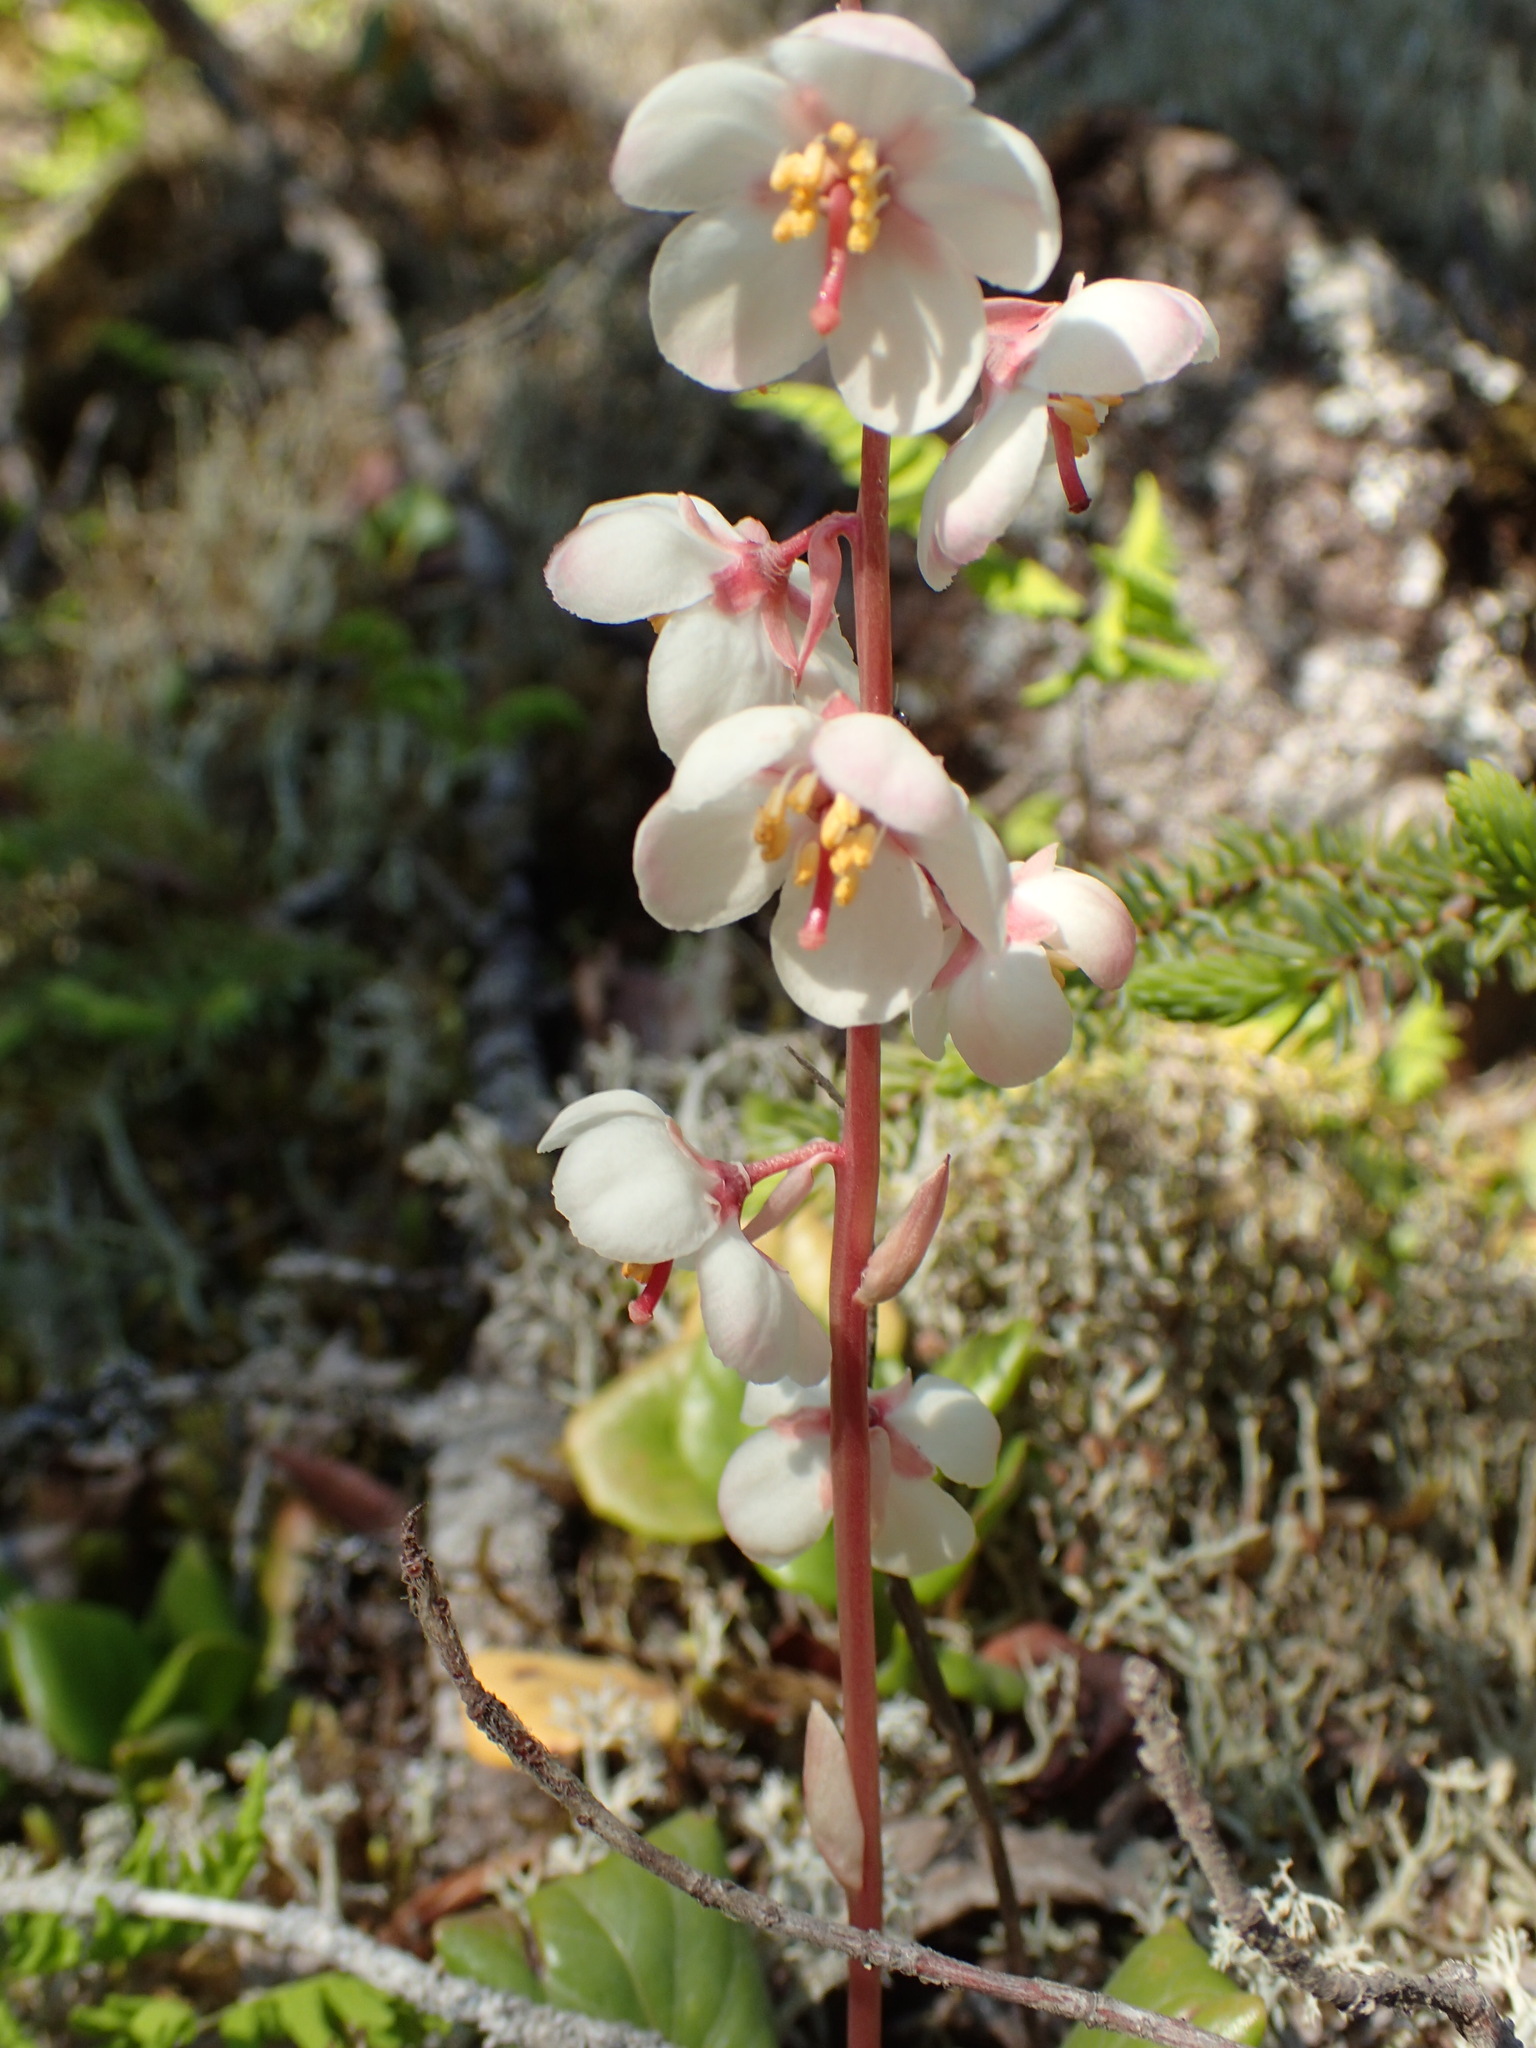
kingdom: Plantae
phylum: Tracheophyta
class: Magnoliopsida
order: Ericales
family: Ericaceae
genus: Pyrola
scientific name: Pyrola grandiflora
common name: Arctic pyrola
